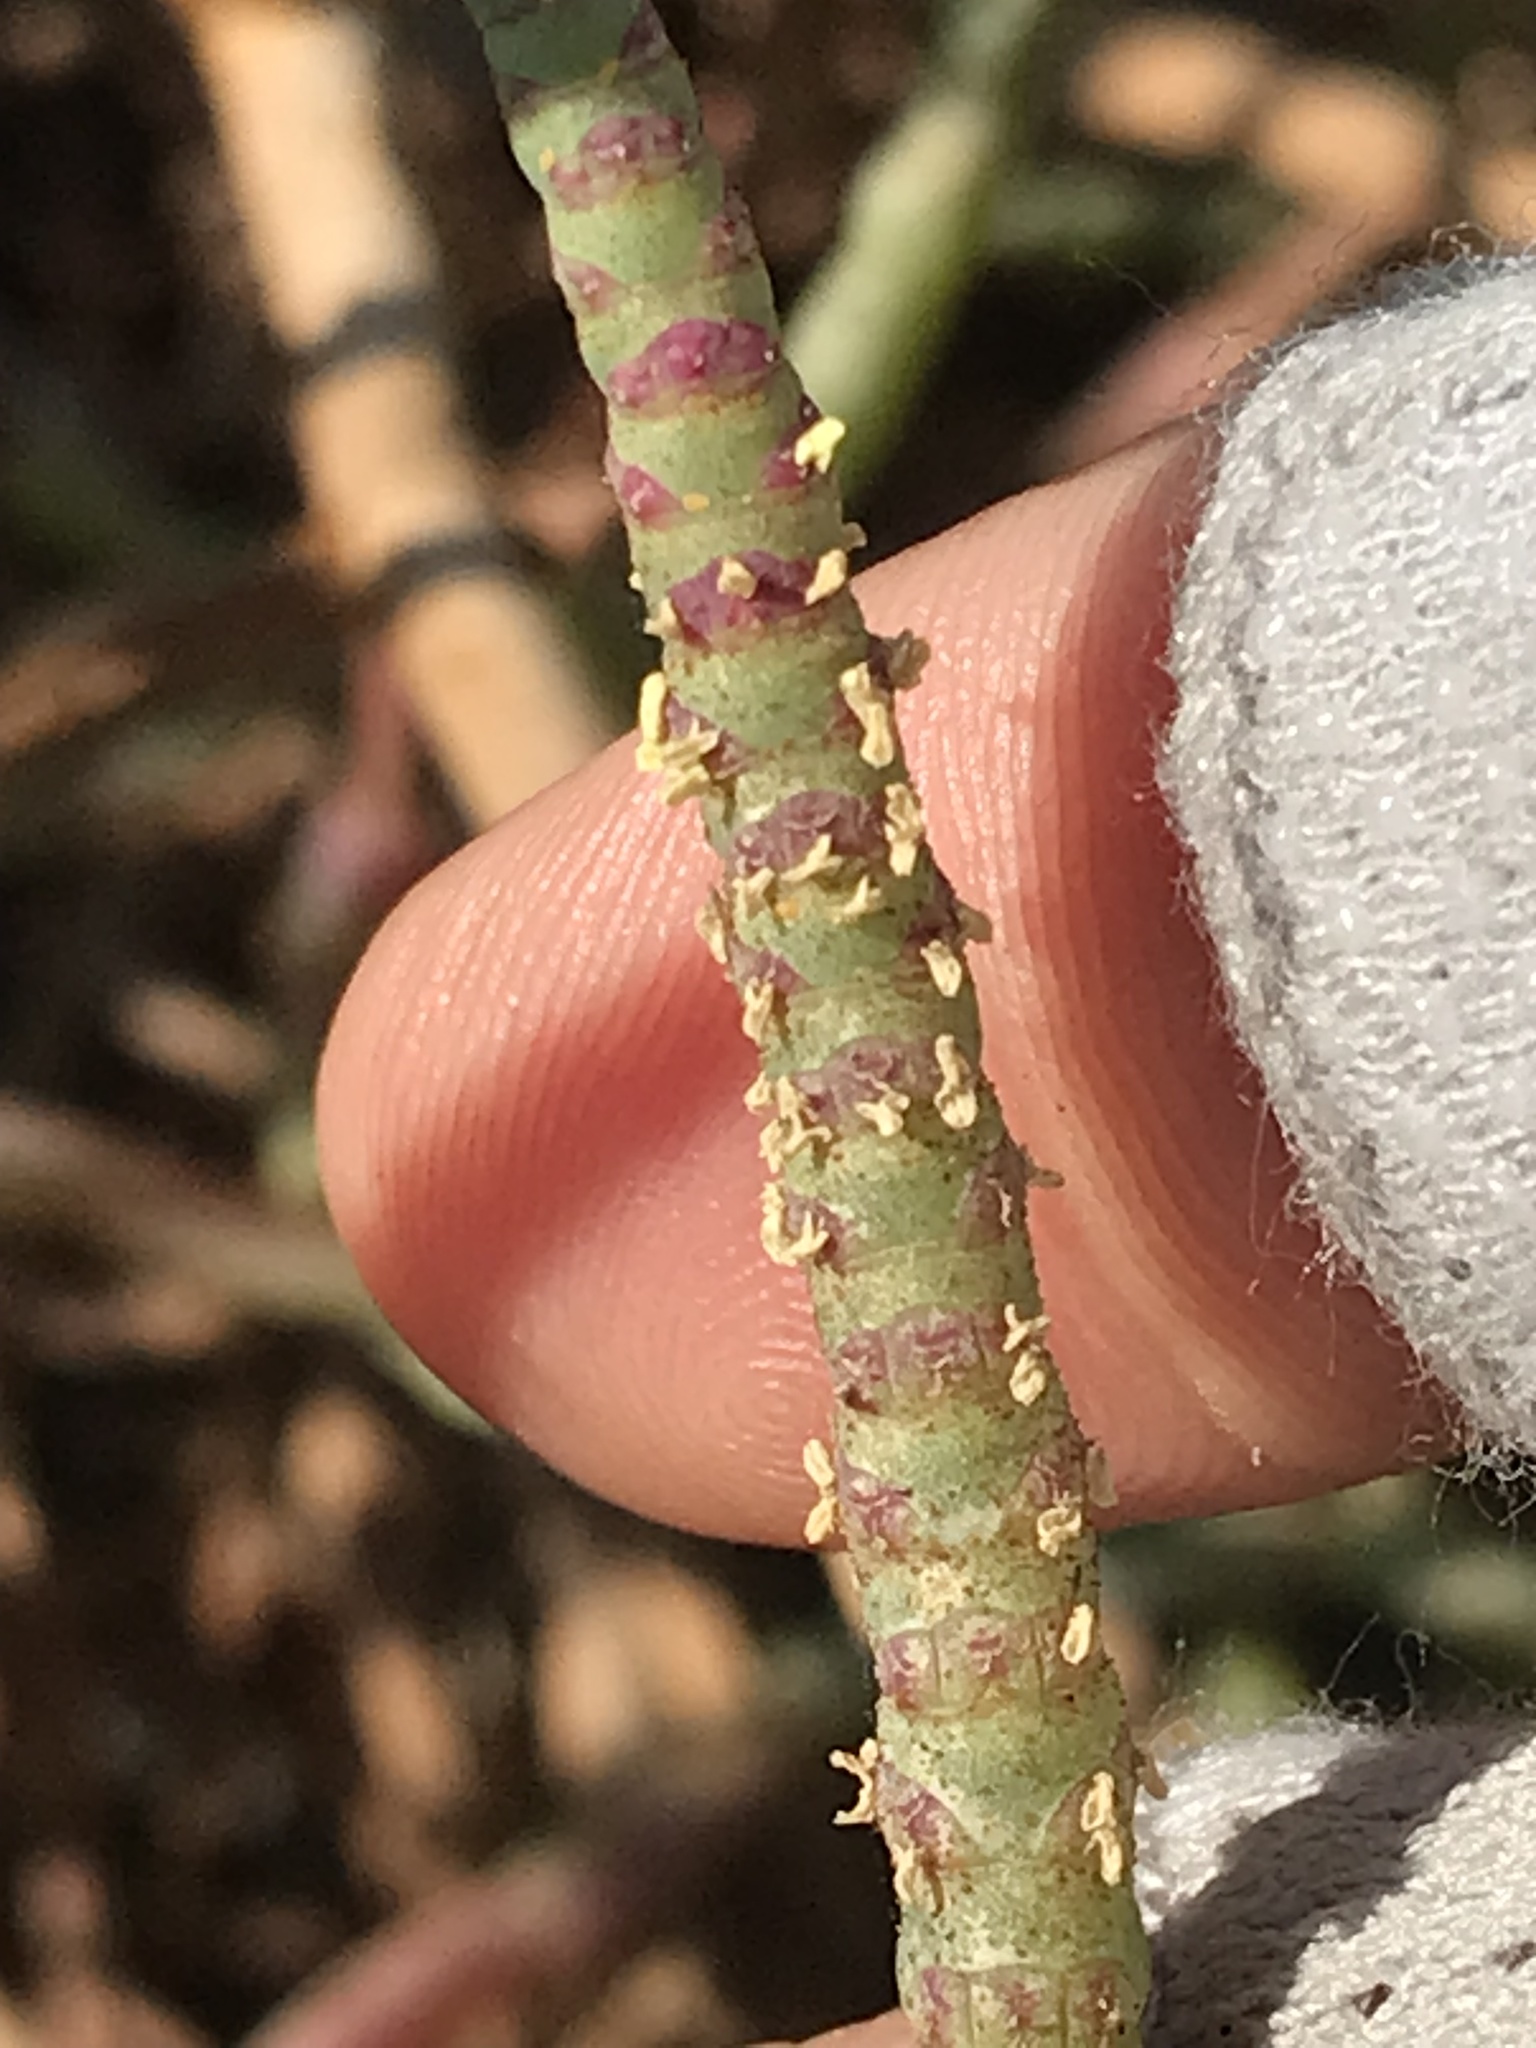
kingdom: Plantae
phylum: Tracheophyta
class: Magnoliopsida
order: Caryophyllales
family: Amaranthaceae
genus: Salicornia
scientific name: Salicornia pacifica
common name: Pacific glasswort
